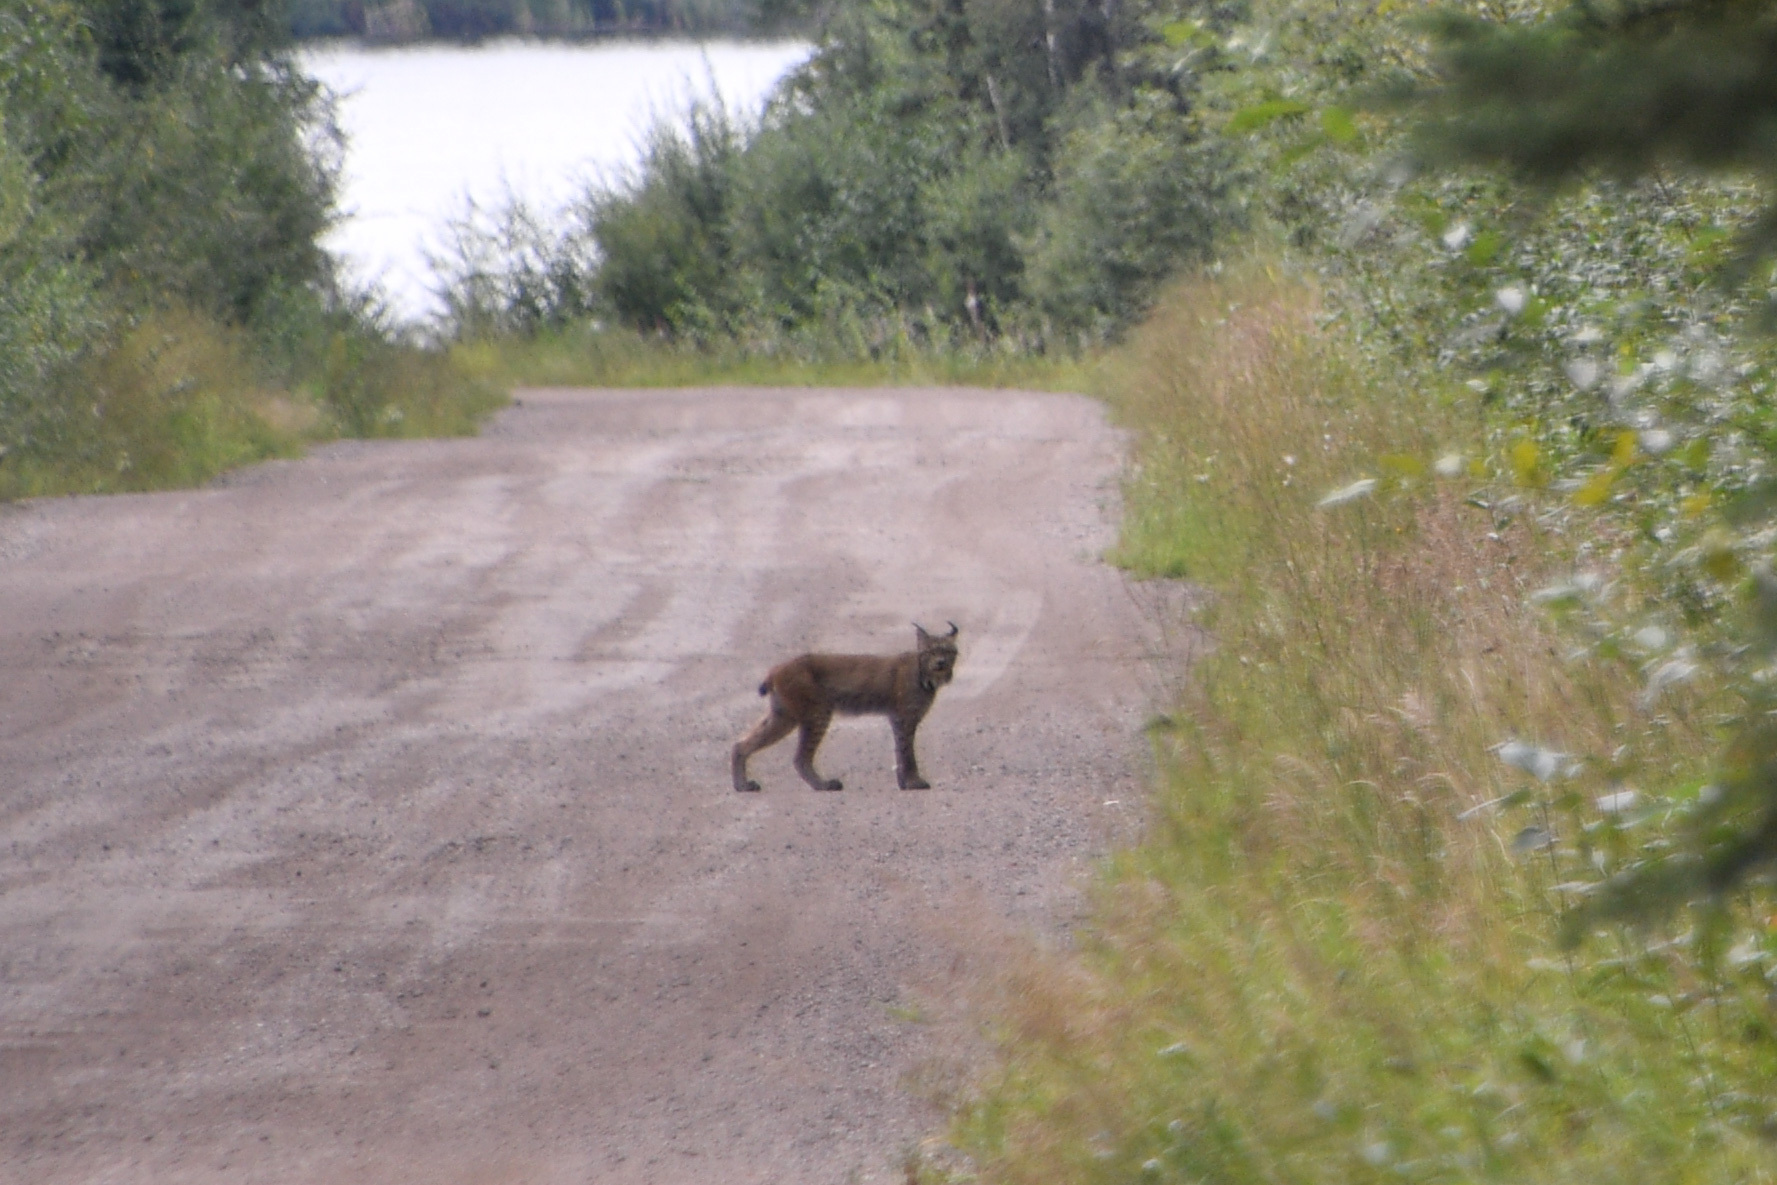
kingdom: Animalia
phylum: Chordata
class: Mammalia
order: Carnivora
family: Felidae
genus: Lynx
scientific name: Lynx canadensis
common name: Canadian lynx
